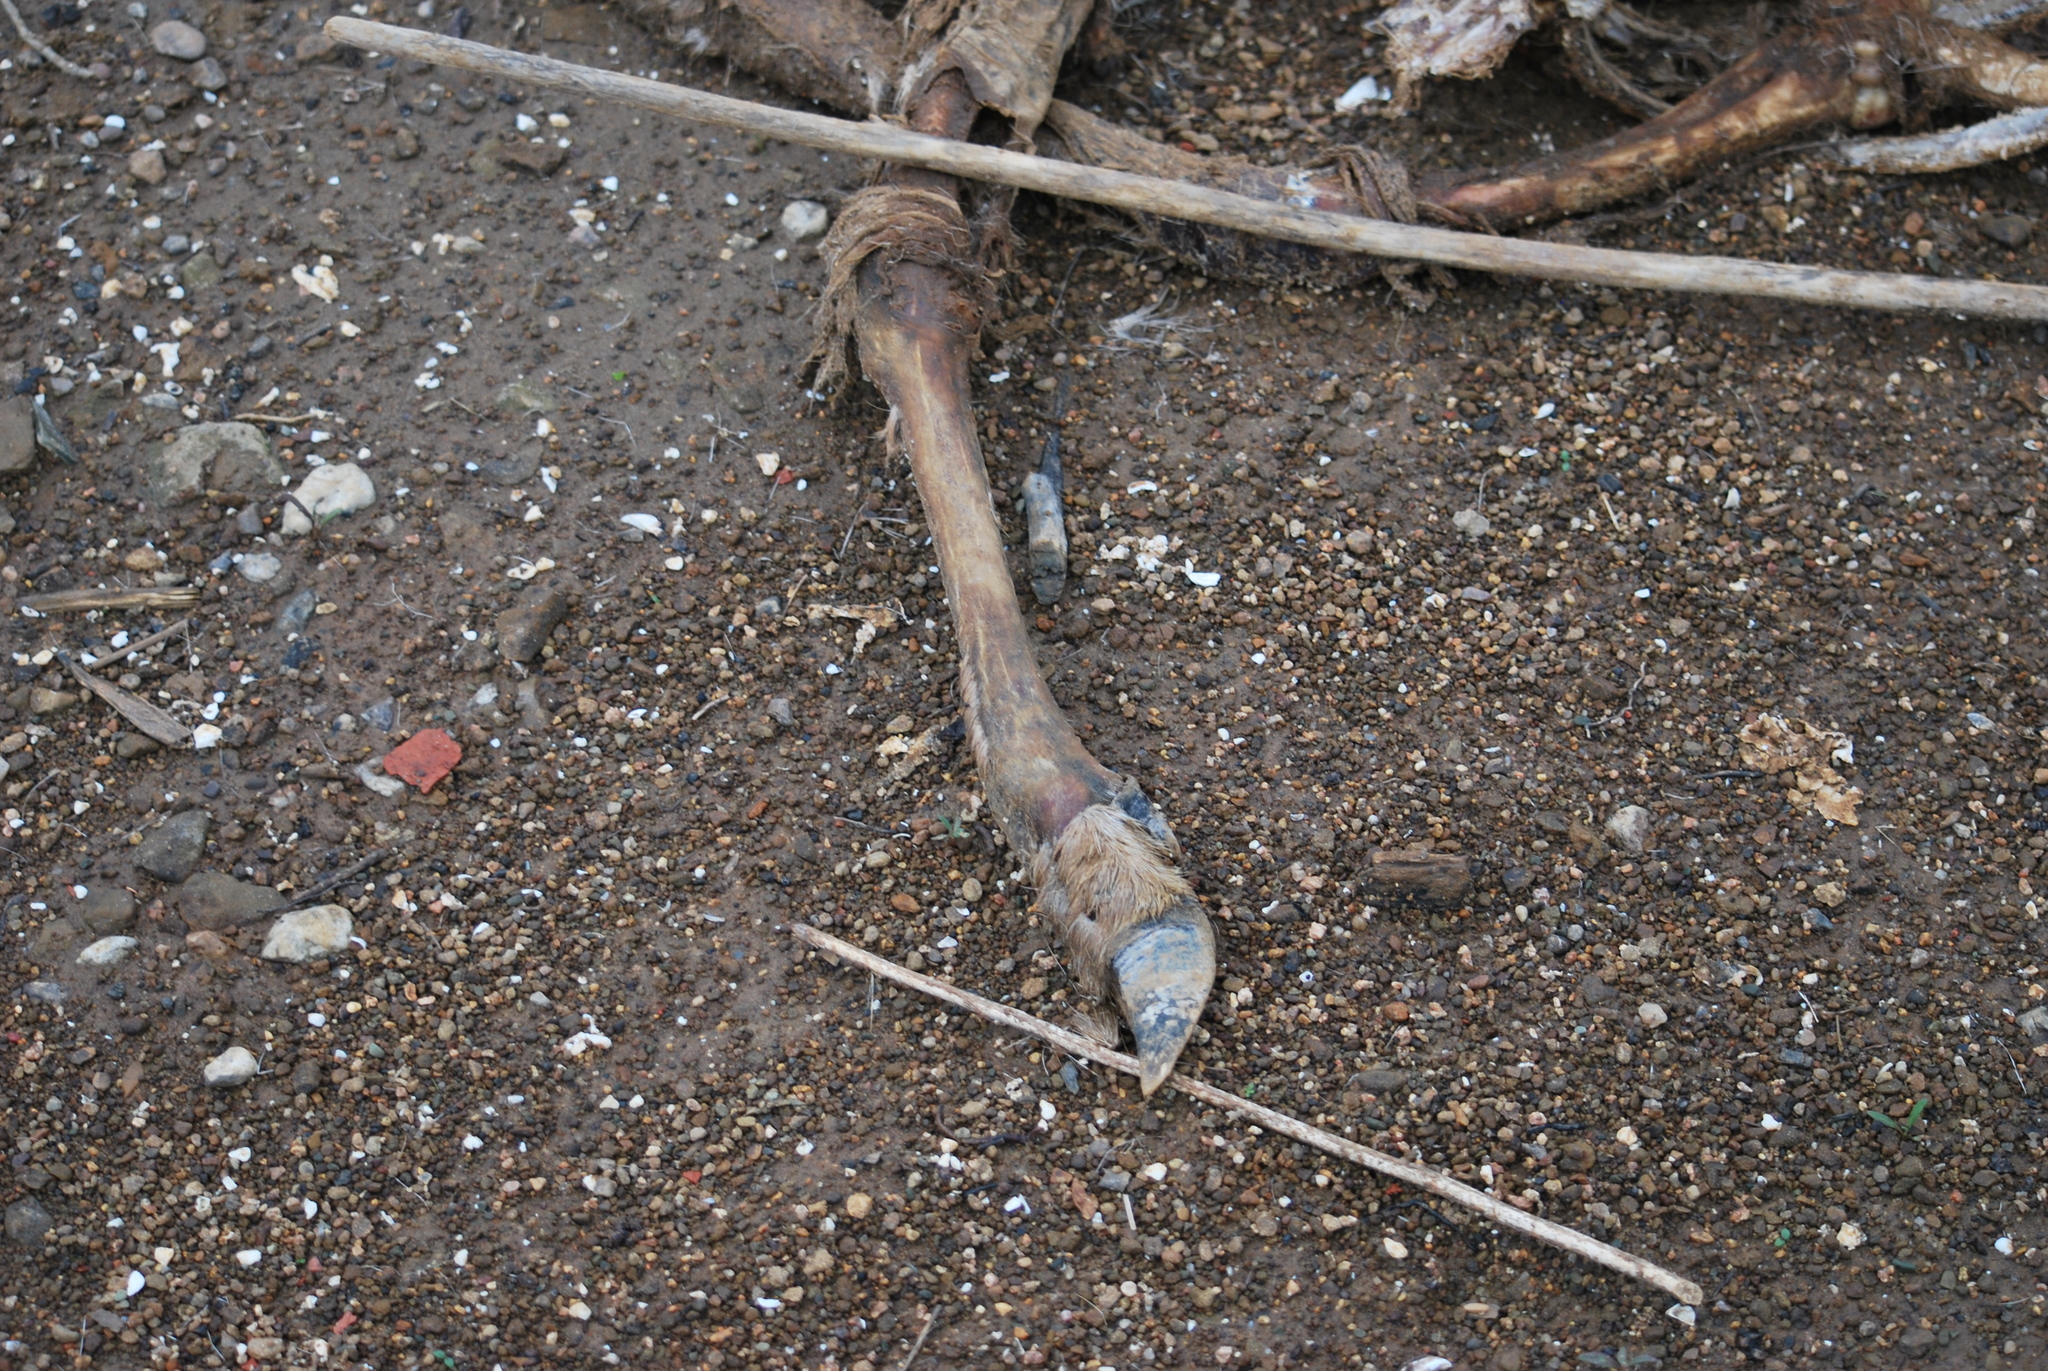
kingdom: Animalia
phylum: Chordata
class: Mammalia
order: Artiodactyla
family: Cervidae
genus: Odocoileus
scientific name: Odocoileus virginianus
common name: White-tailed deer
